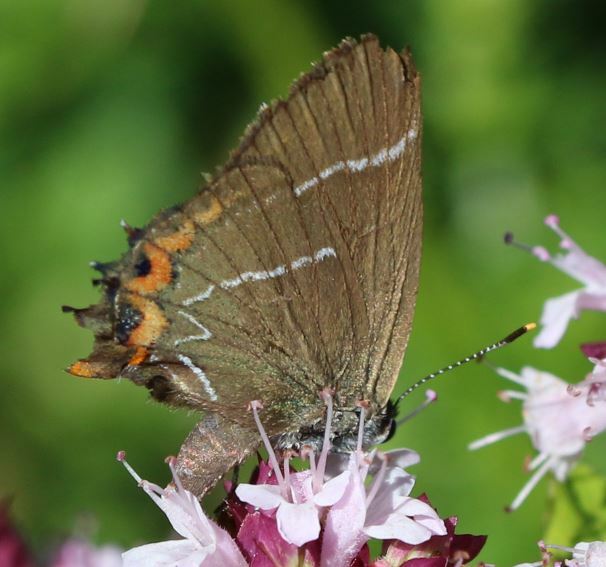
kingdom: Animalia
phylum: Arthropoda
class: Insecta
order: Lepidoptera
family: Lycaenidae
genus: Satyrium
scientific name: Satyrium w-album
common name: White-letter hairstreak
